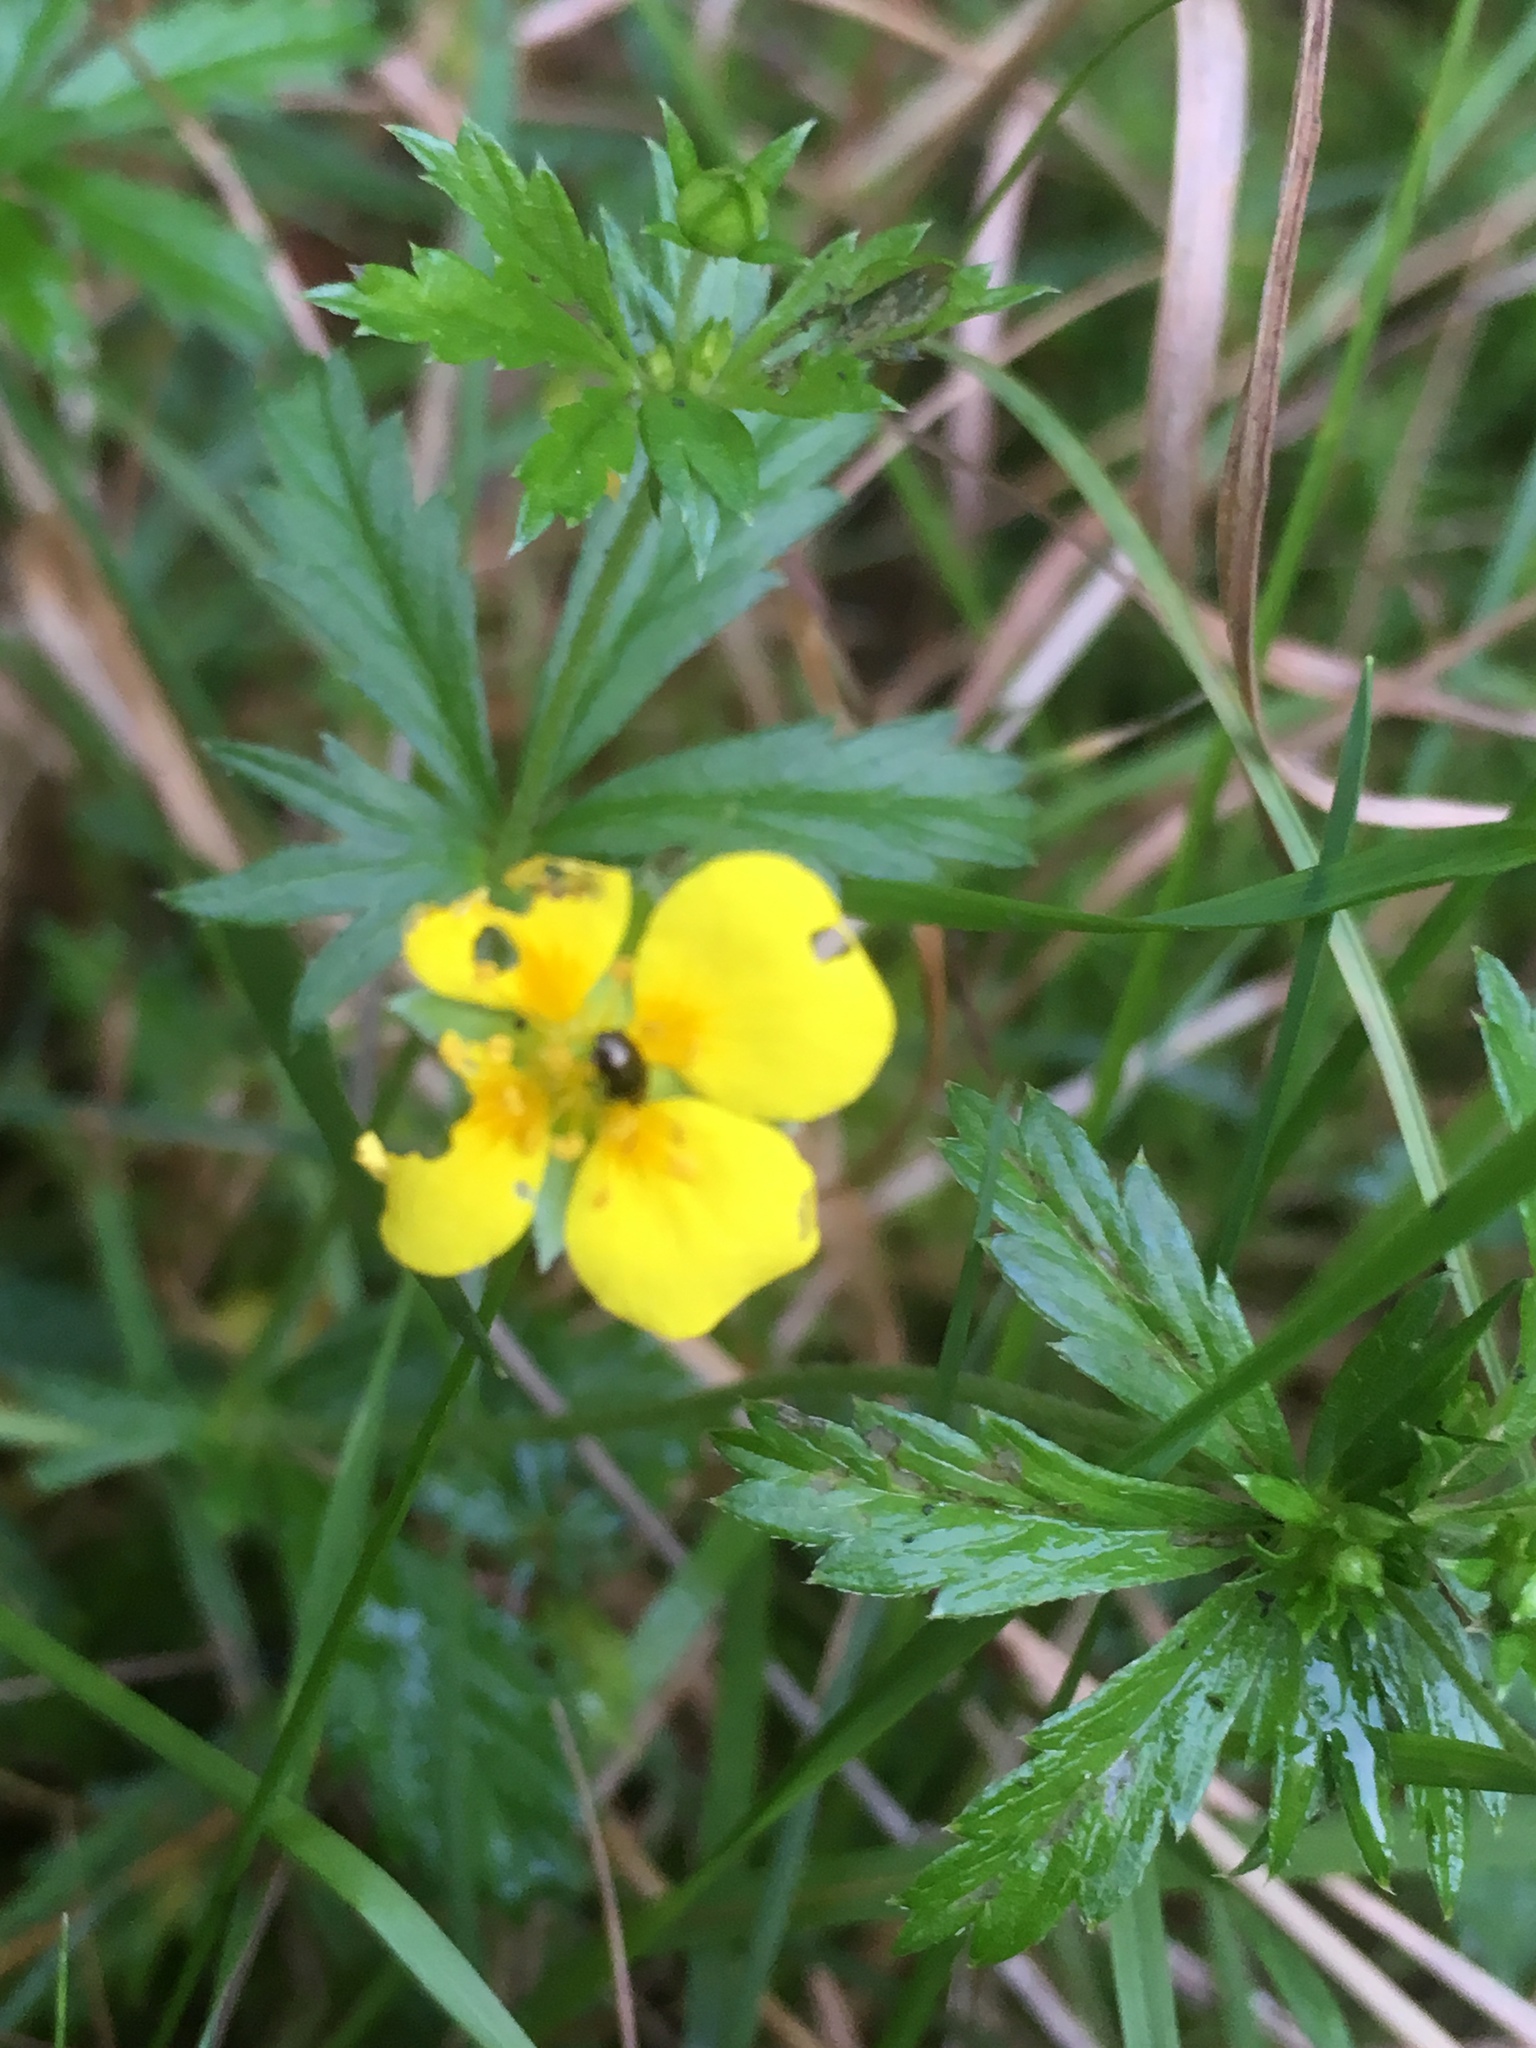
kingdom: Plantae
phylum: Tracheophyta
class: Magnoliopsida
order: Rosales
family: Rosaceae
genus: Potentilla
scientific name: Potentilla erecta
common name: Tormentil
